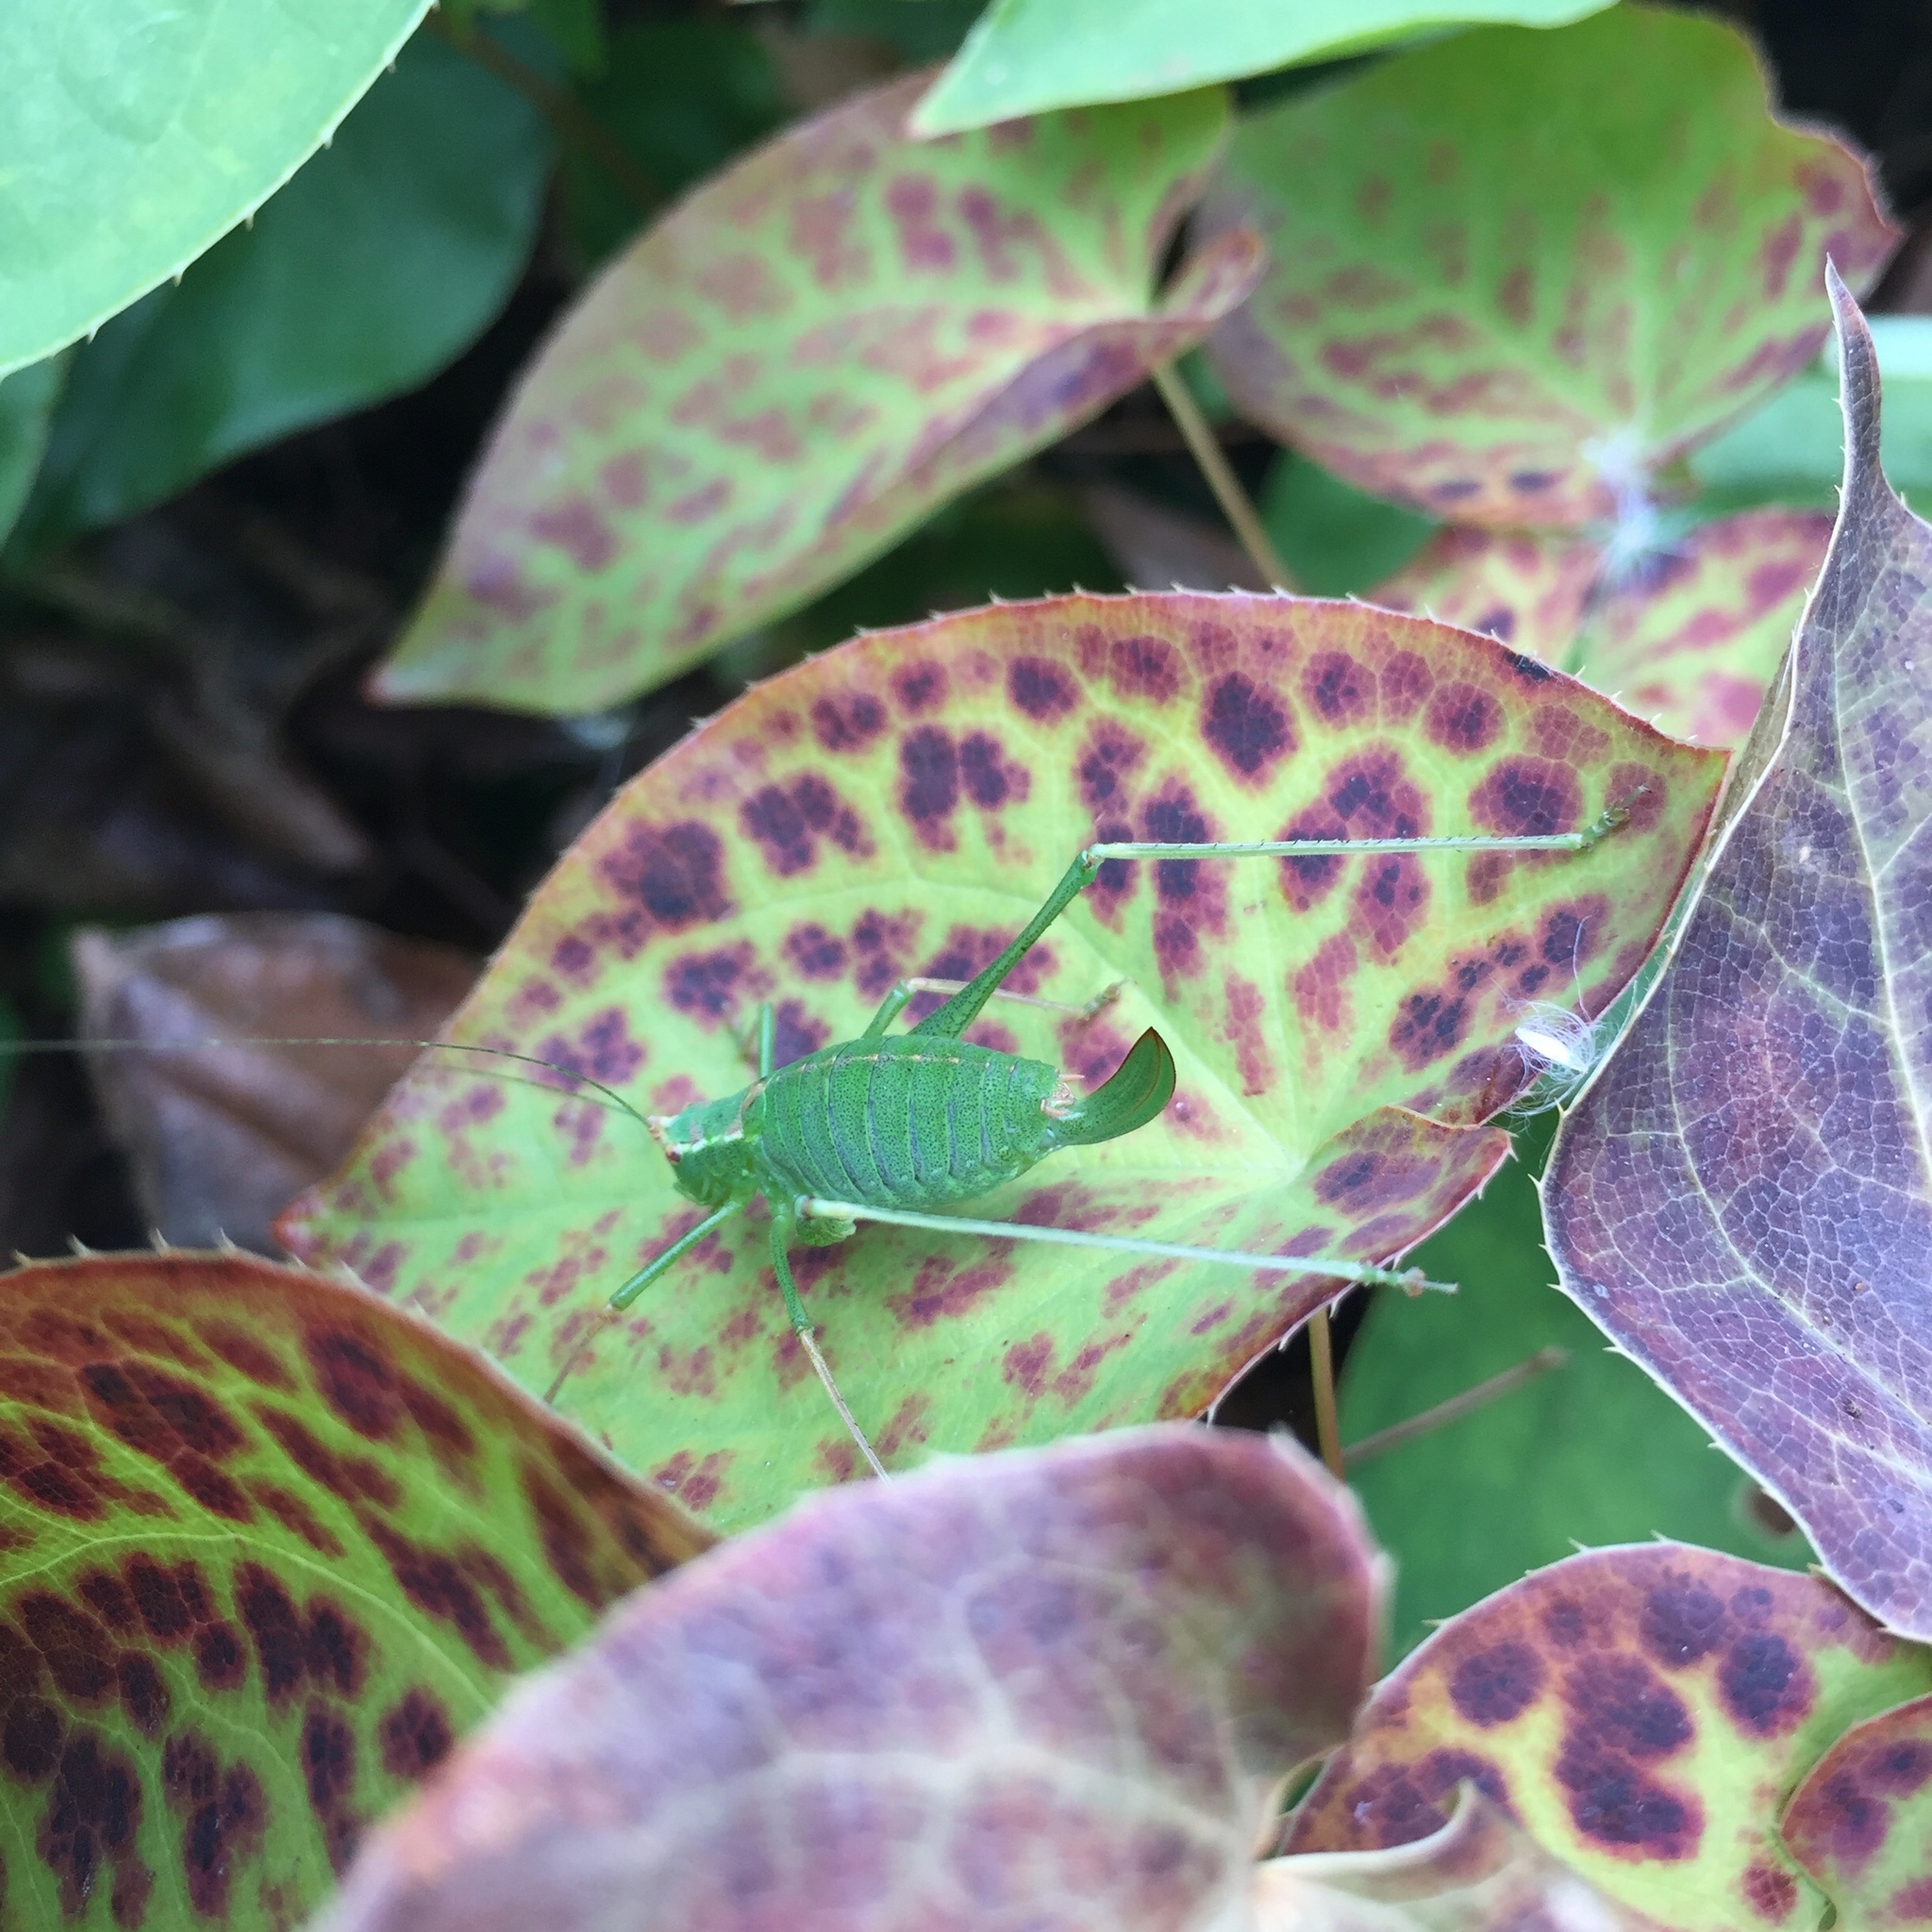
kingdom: Animalia
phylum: Arthropoda
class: Insecta
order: Orthoptera
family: Tettigoniidae
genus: Leptophyes
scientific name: Leptophyes punctatissima
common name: Speckled bush-cricket
